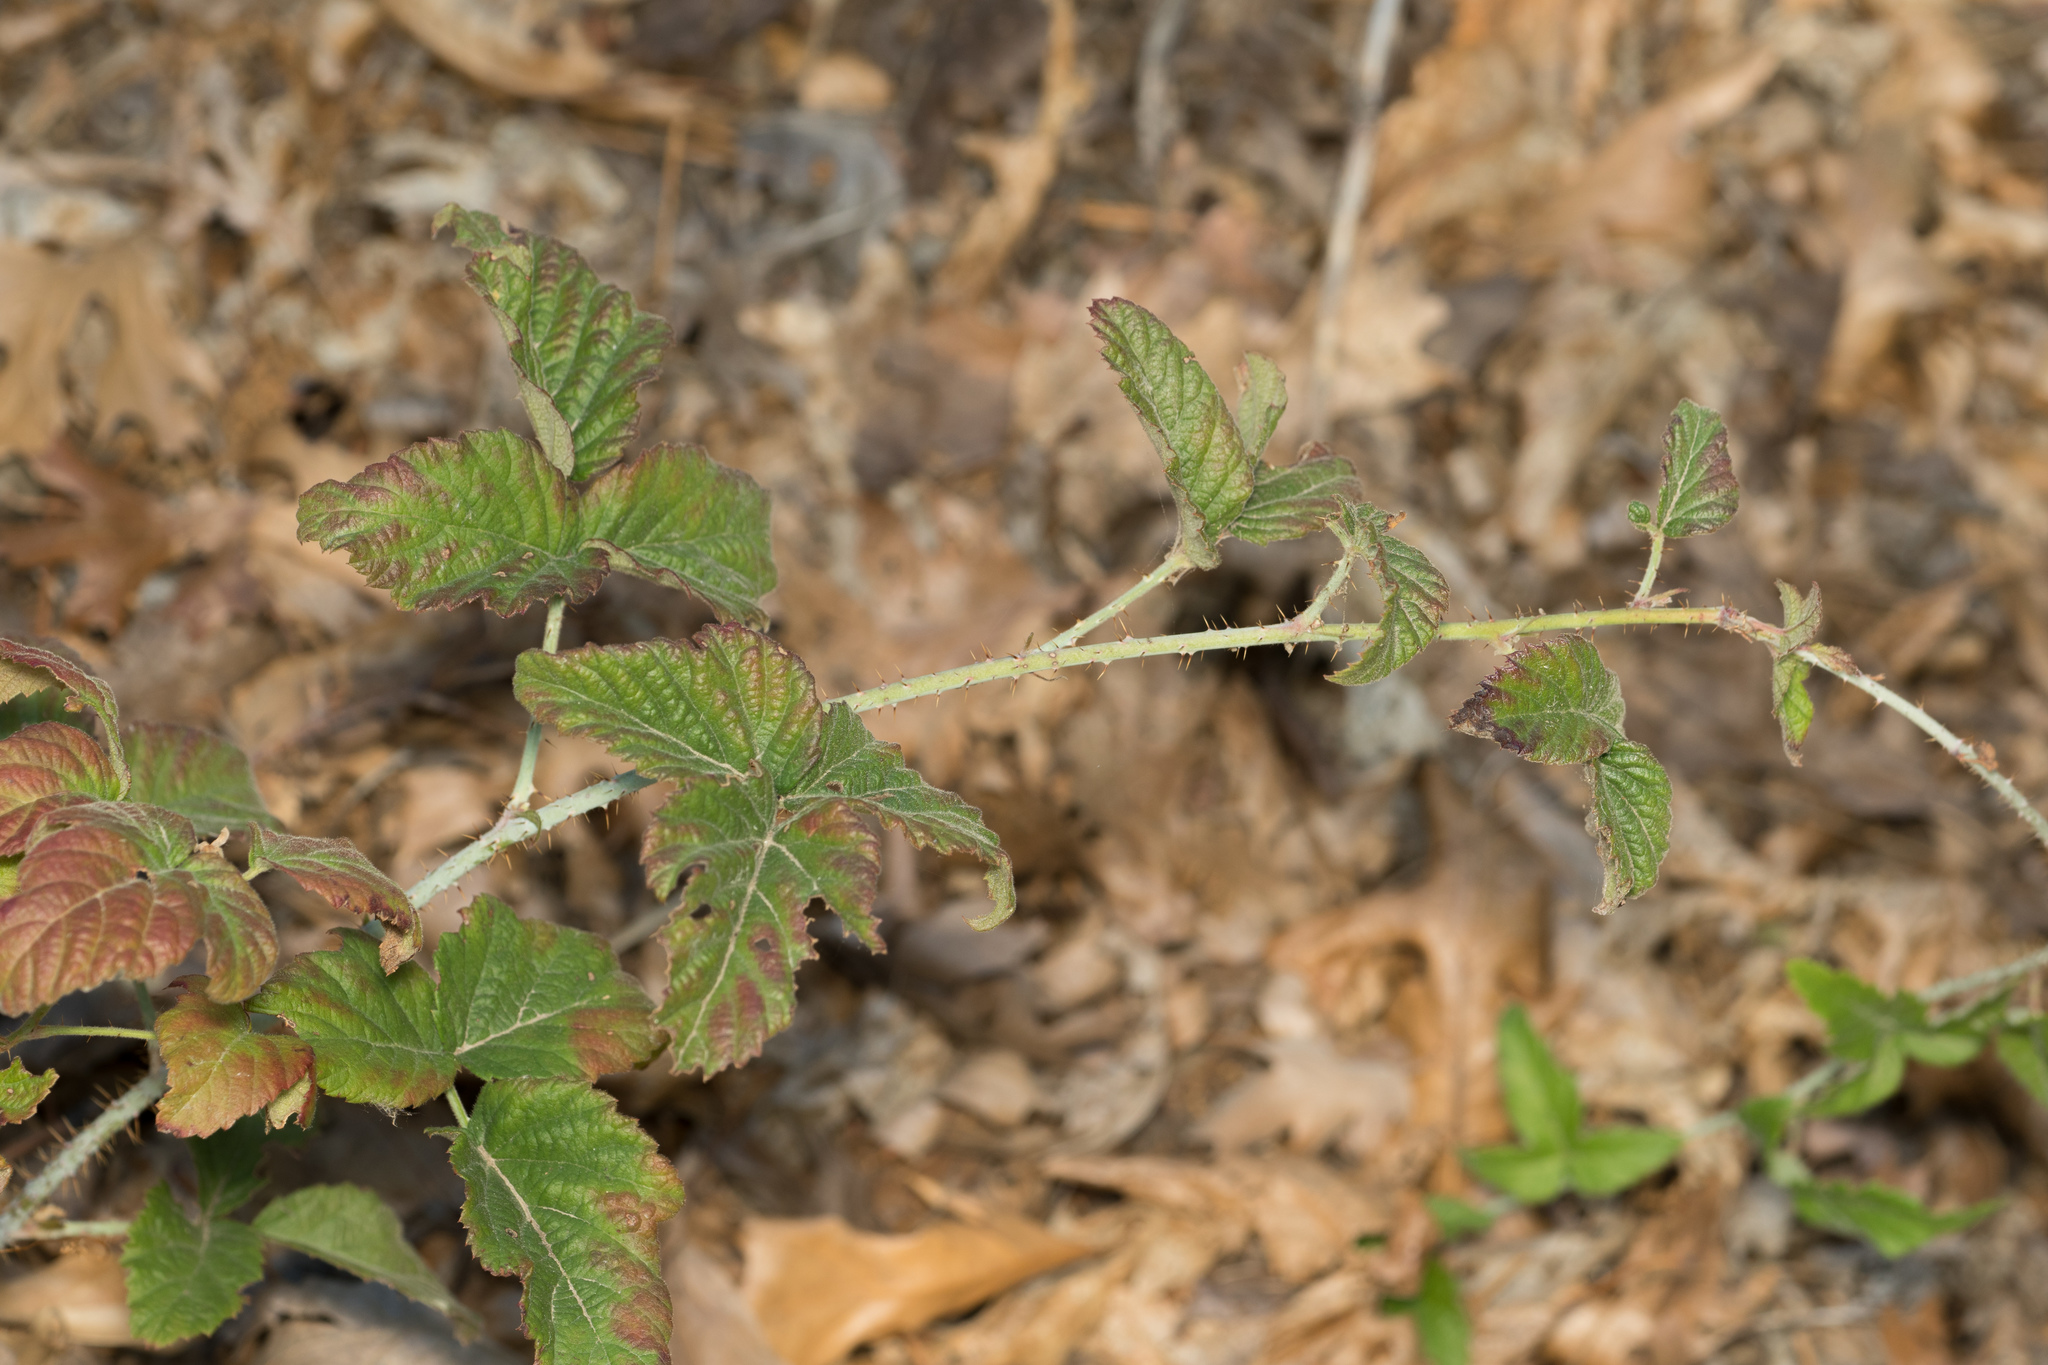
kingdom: Plantae
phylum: Tracheophyta
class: Magnoliopsida
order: Rosales
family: Rosaceae
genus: Rubus
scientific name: Rubus ursinus
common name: Pacific blackberry
